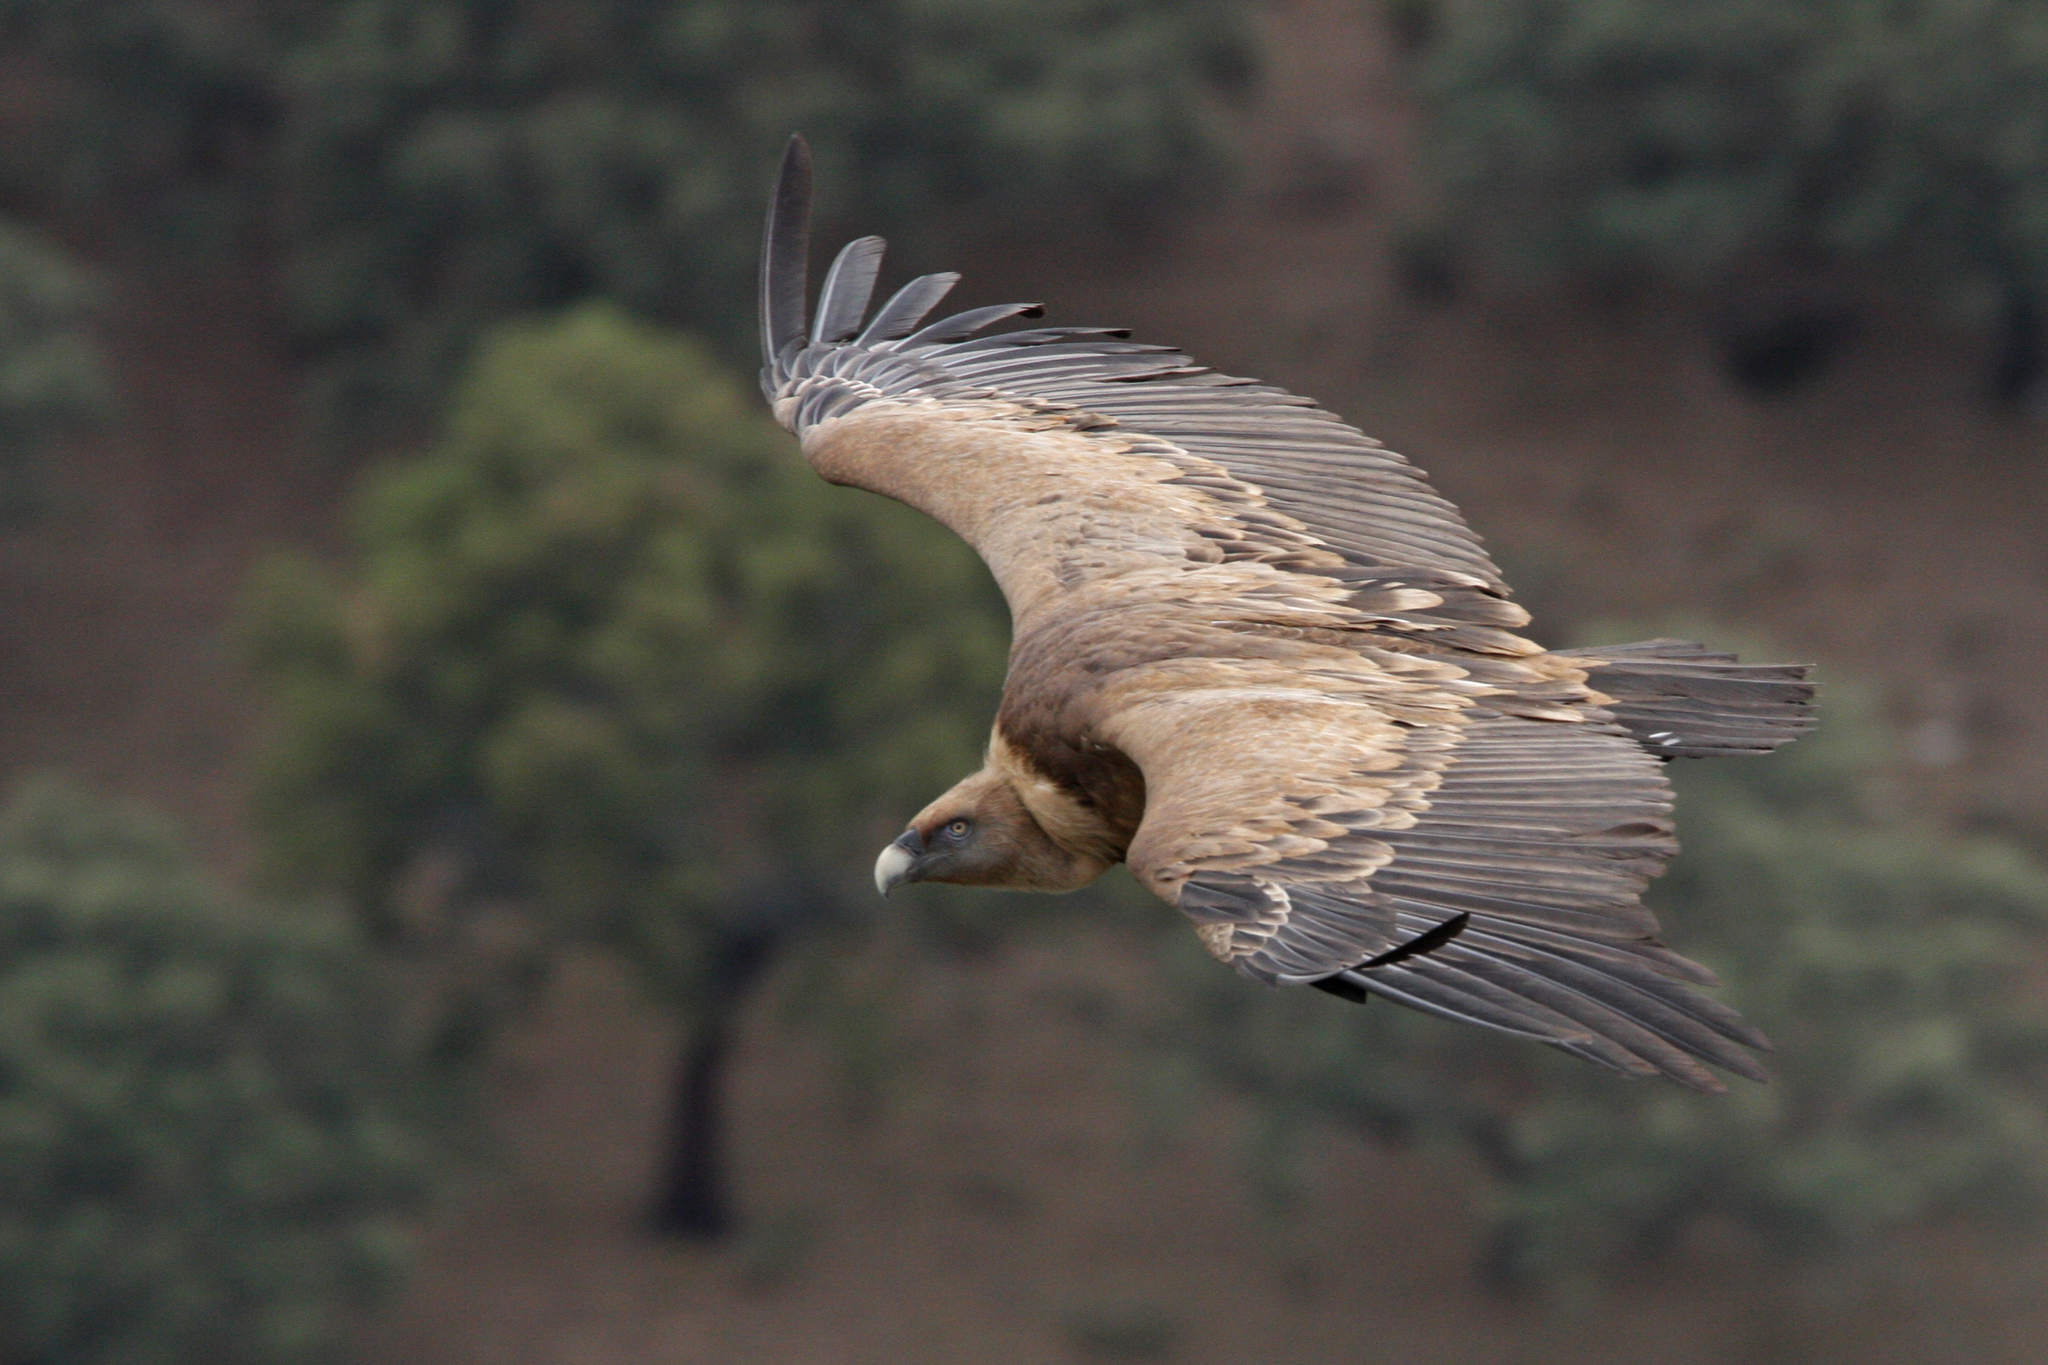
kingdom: Animalia
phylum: Chordata
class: Aves
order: Accipitriformes
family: Accipitridae
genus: Gyps
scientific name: Gyps fulvus
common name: Griffon vulture
